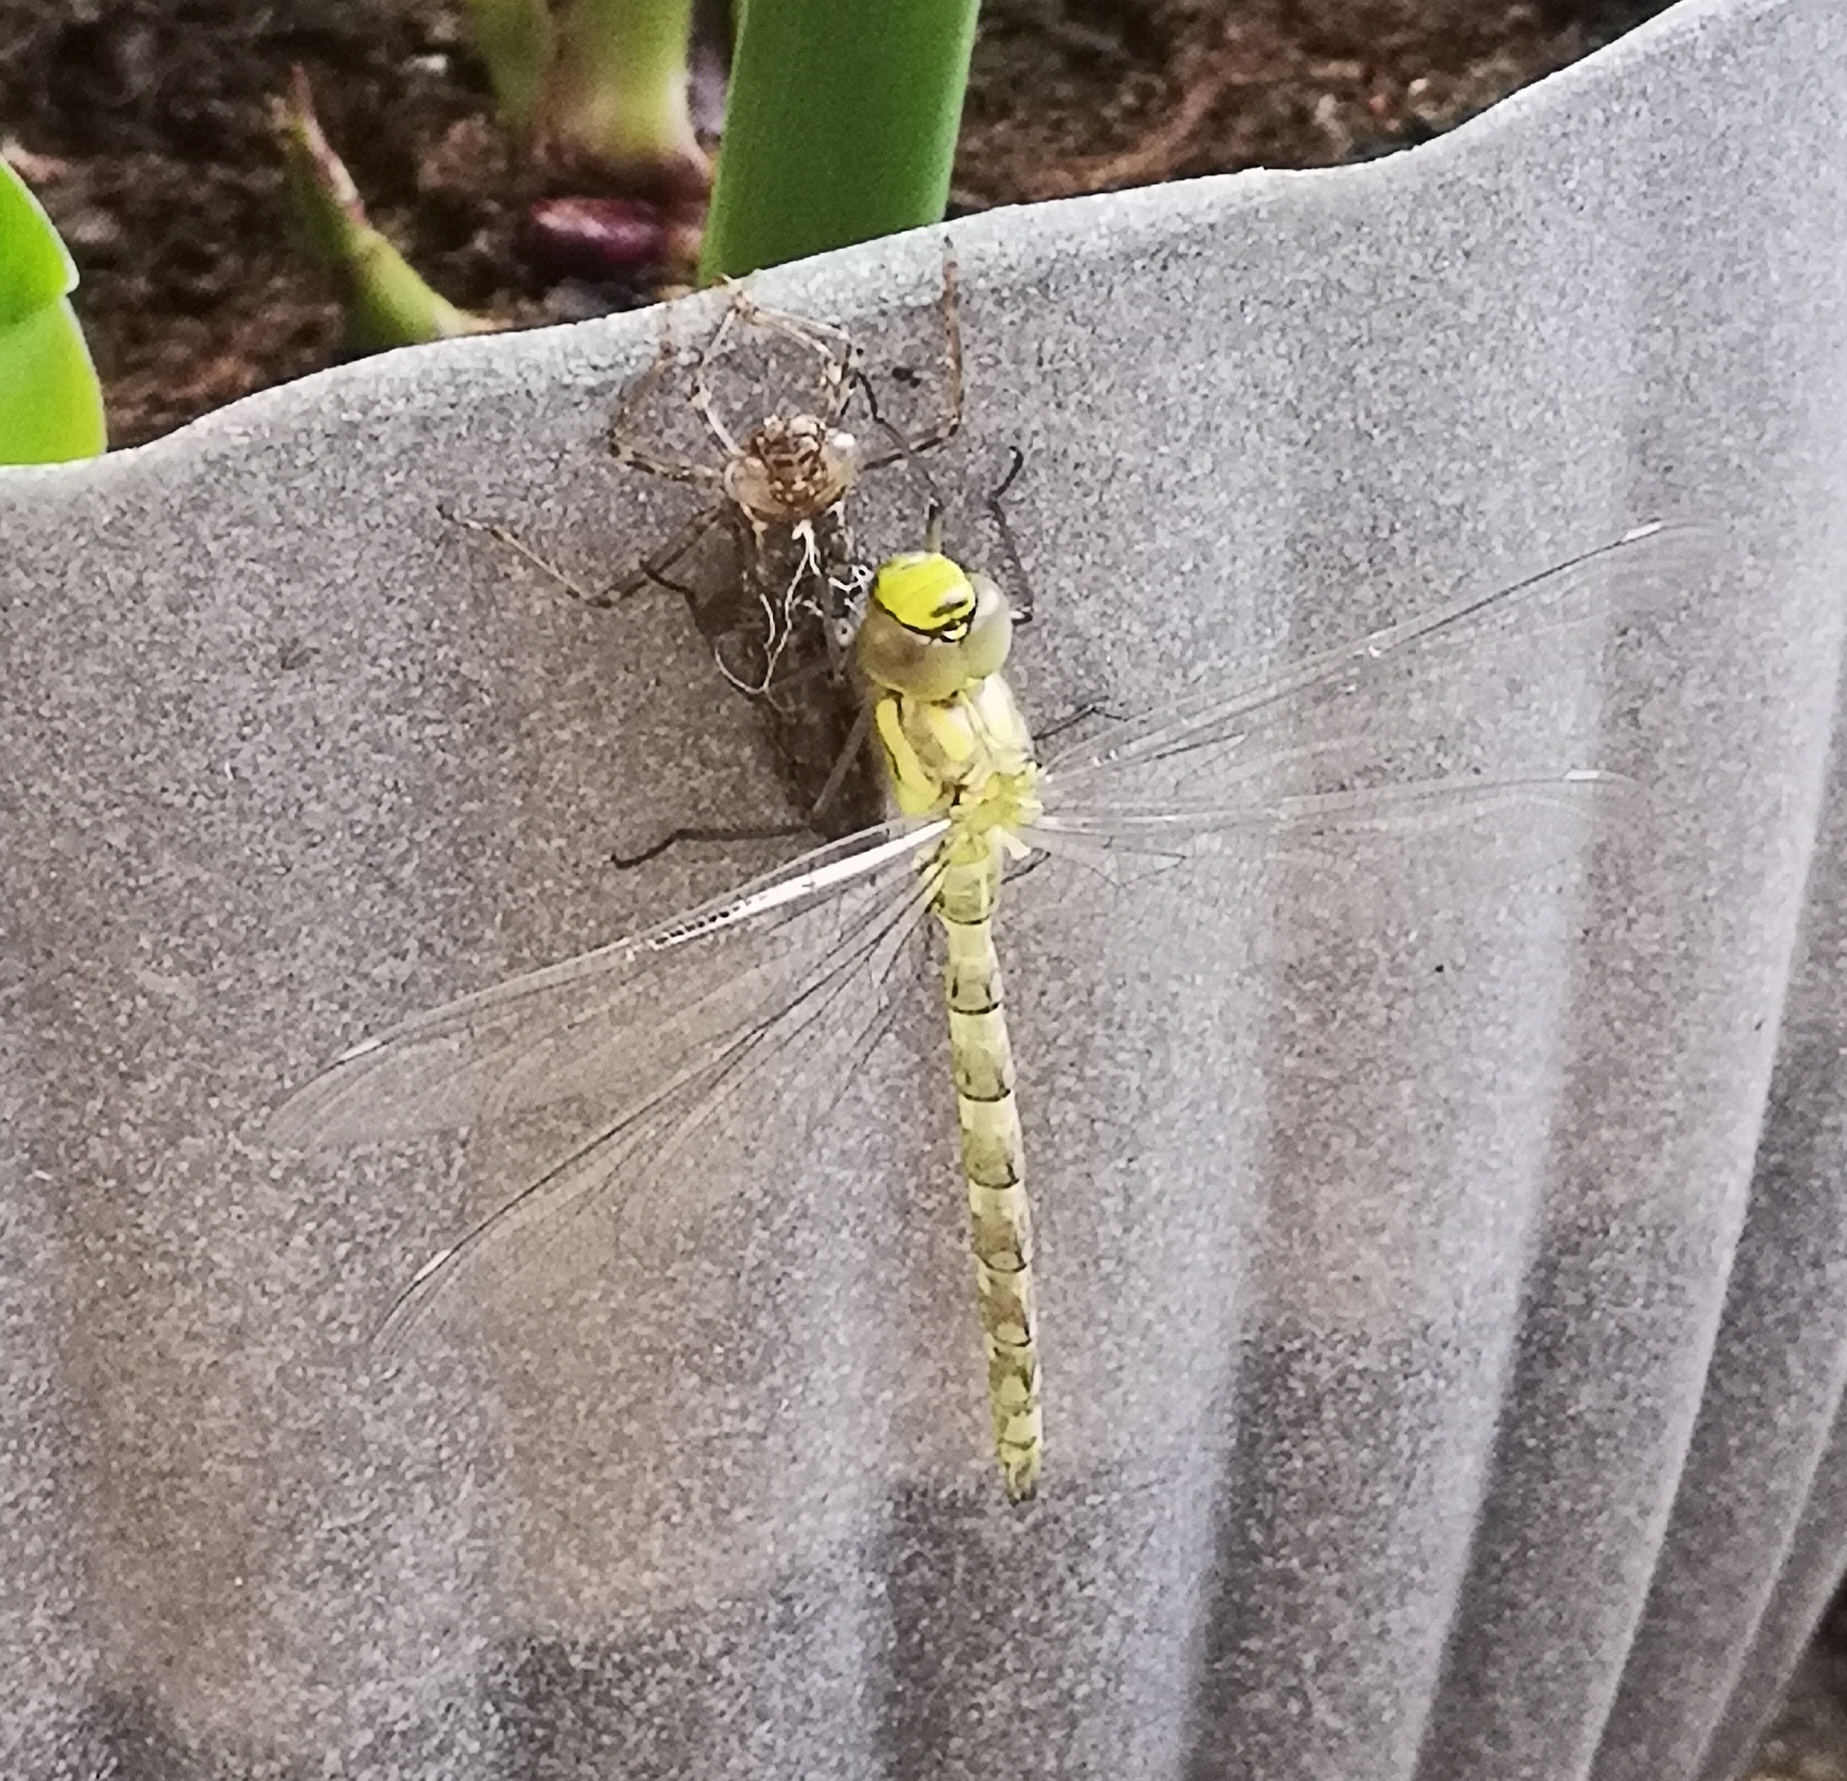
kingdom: Animalia
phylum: Arthropoda
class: Insecta
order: Odonata
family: Aeshnidae
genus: Aeshna
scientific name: Aeshna cyanea
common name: Southern hawker
